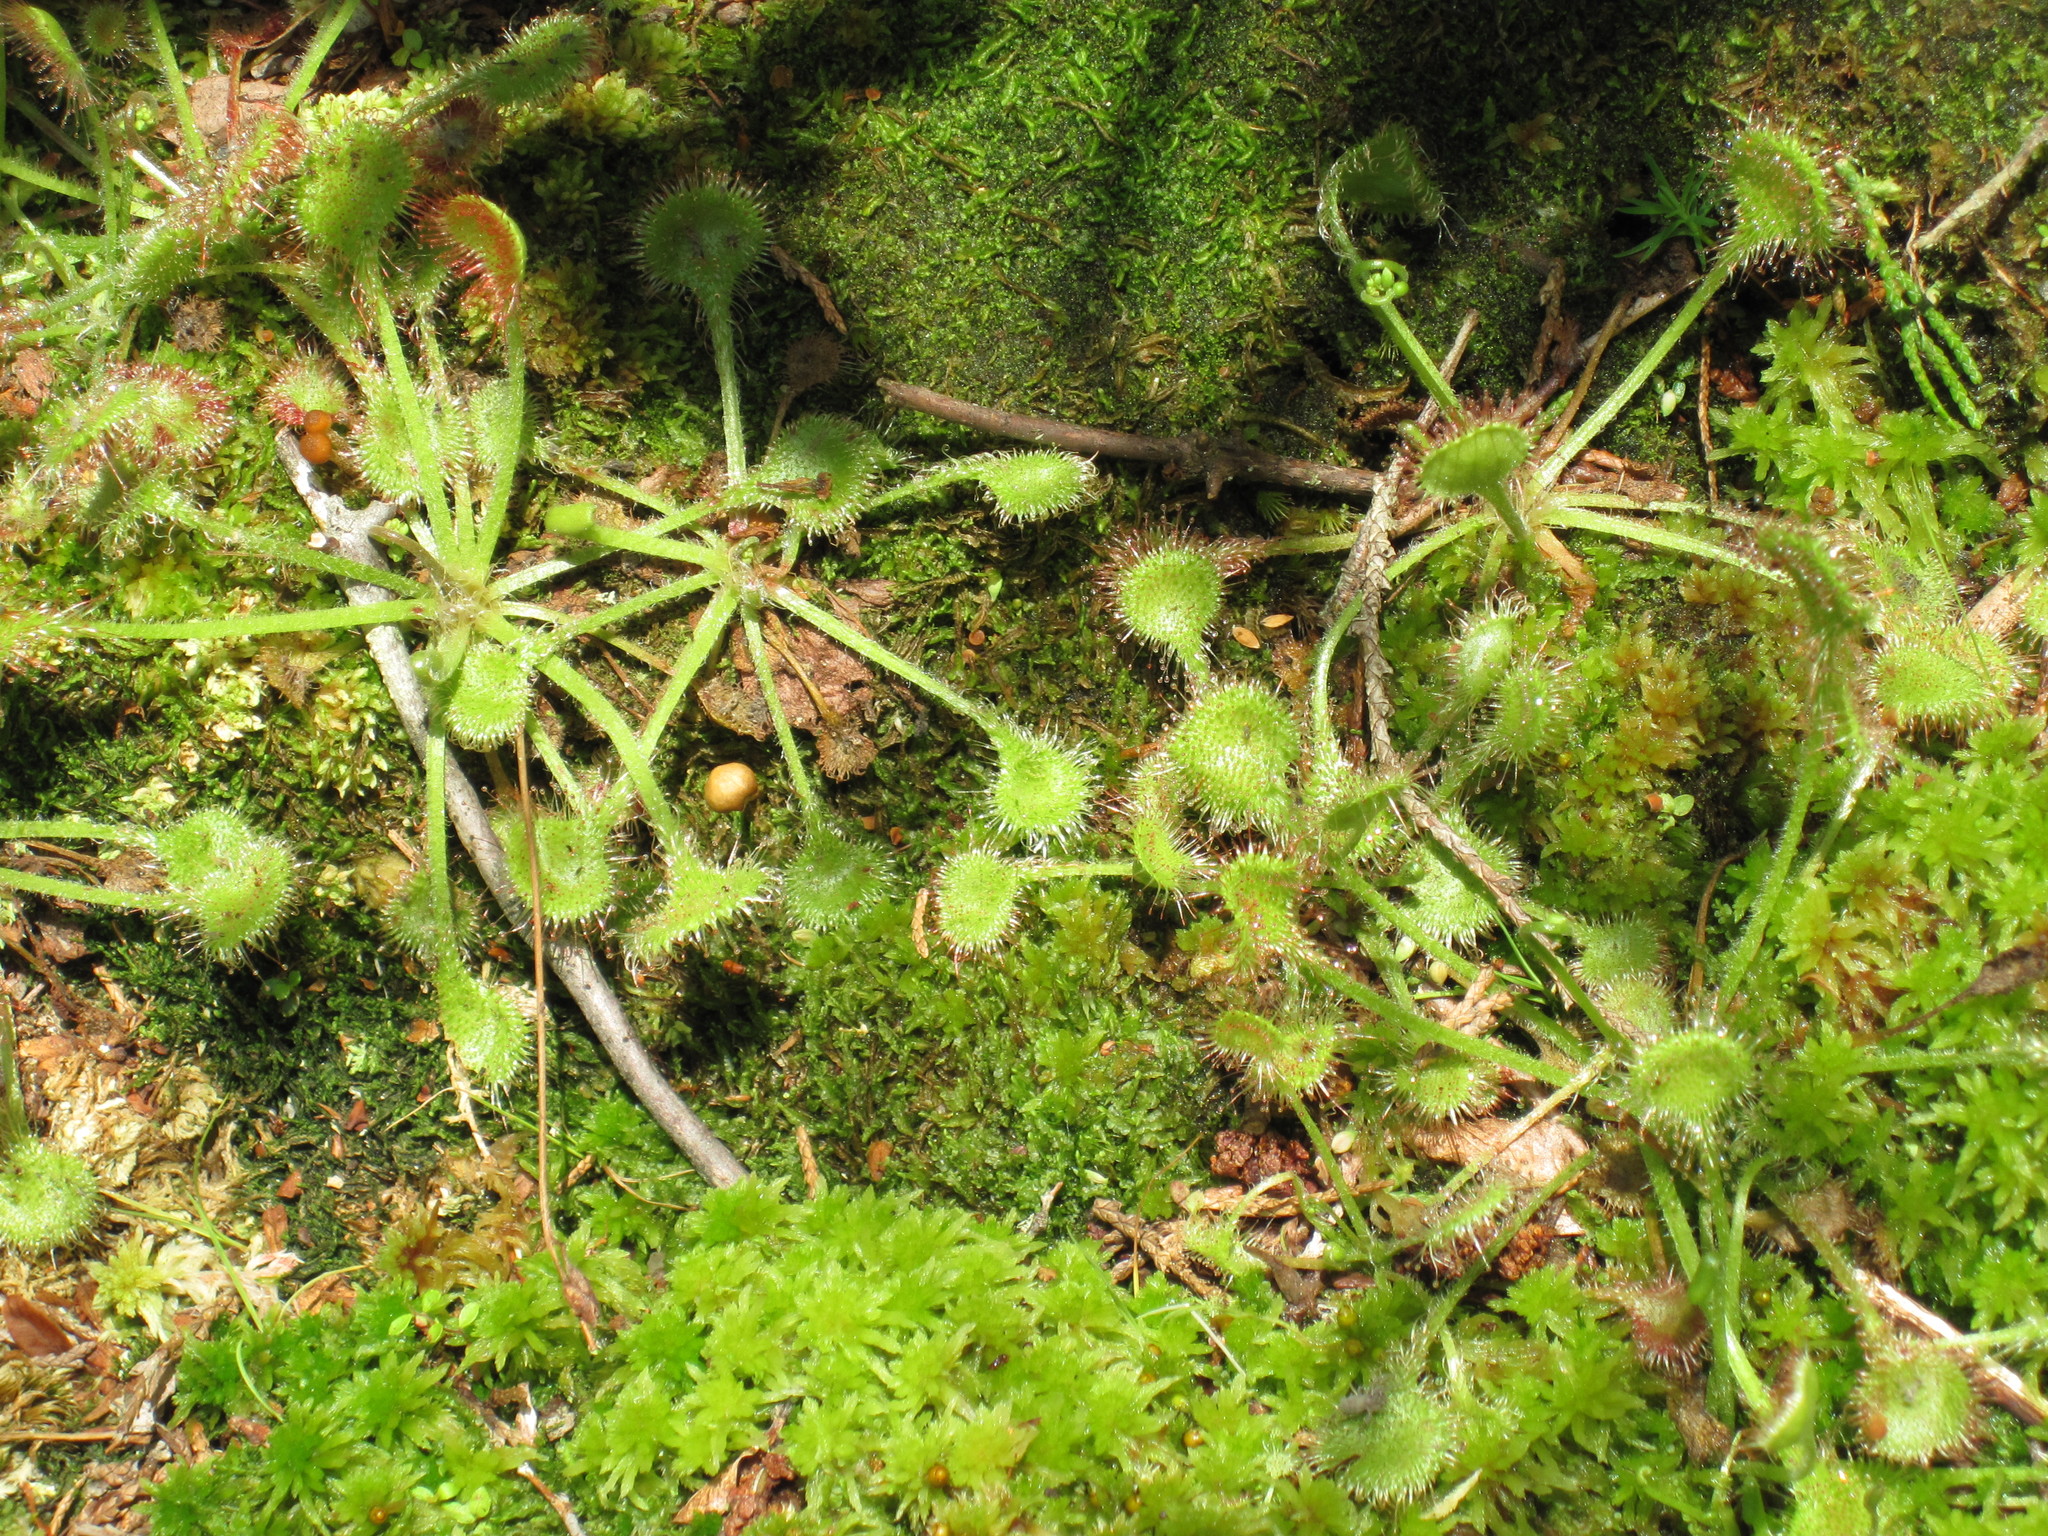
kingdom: Plantae
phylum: Tracheophyta
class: Magnoliopsida
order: Caryophyllales
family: Droseraceae
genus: Drosera
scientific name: Drosera rotundifolia
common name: Round-leaved sundew
